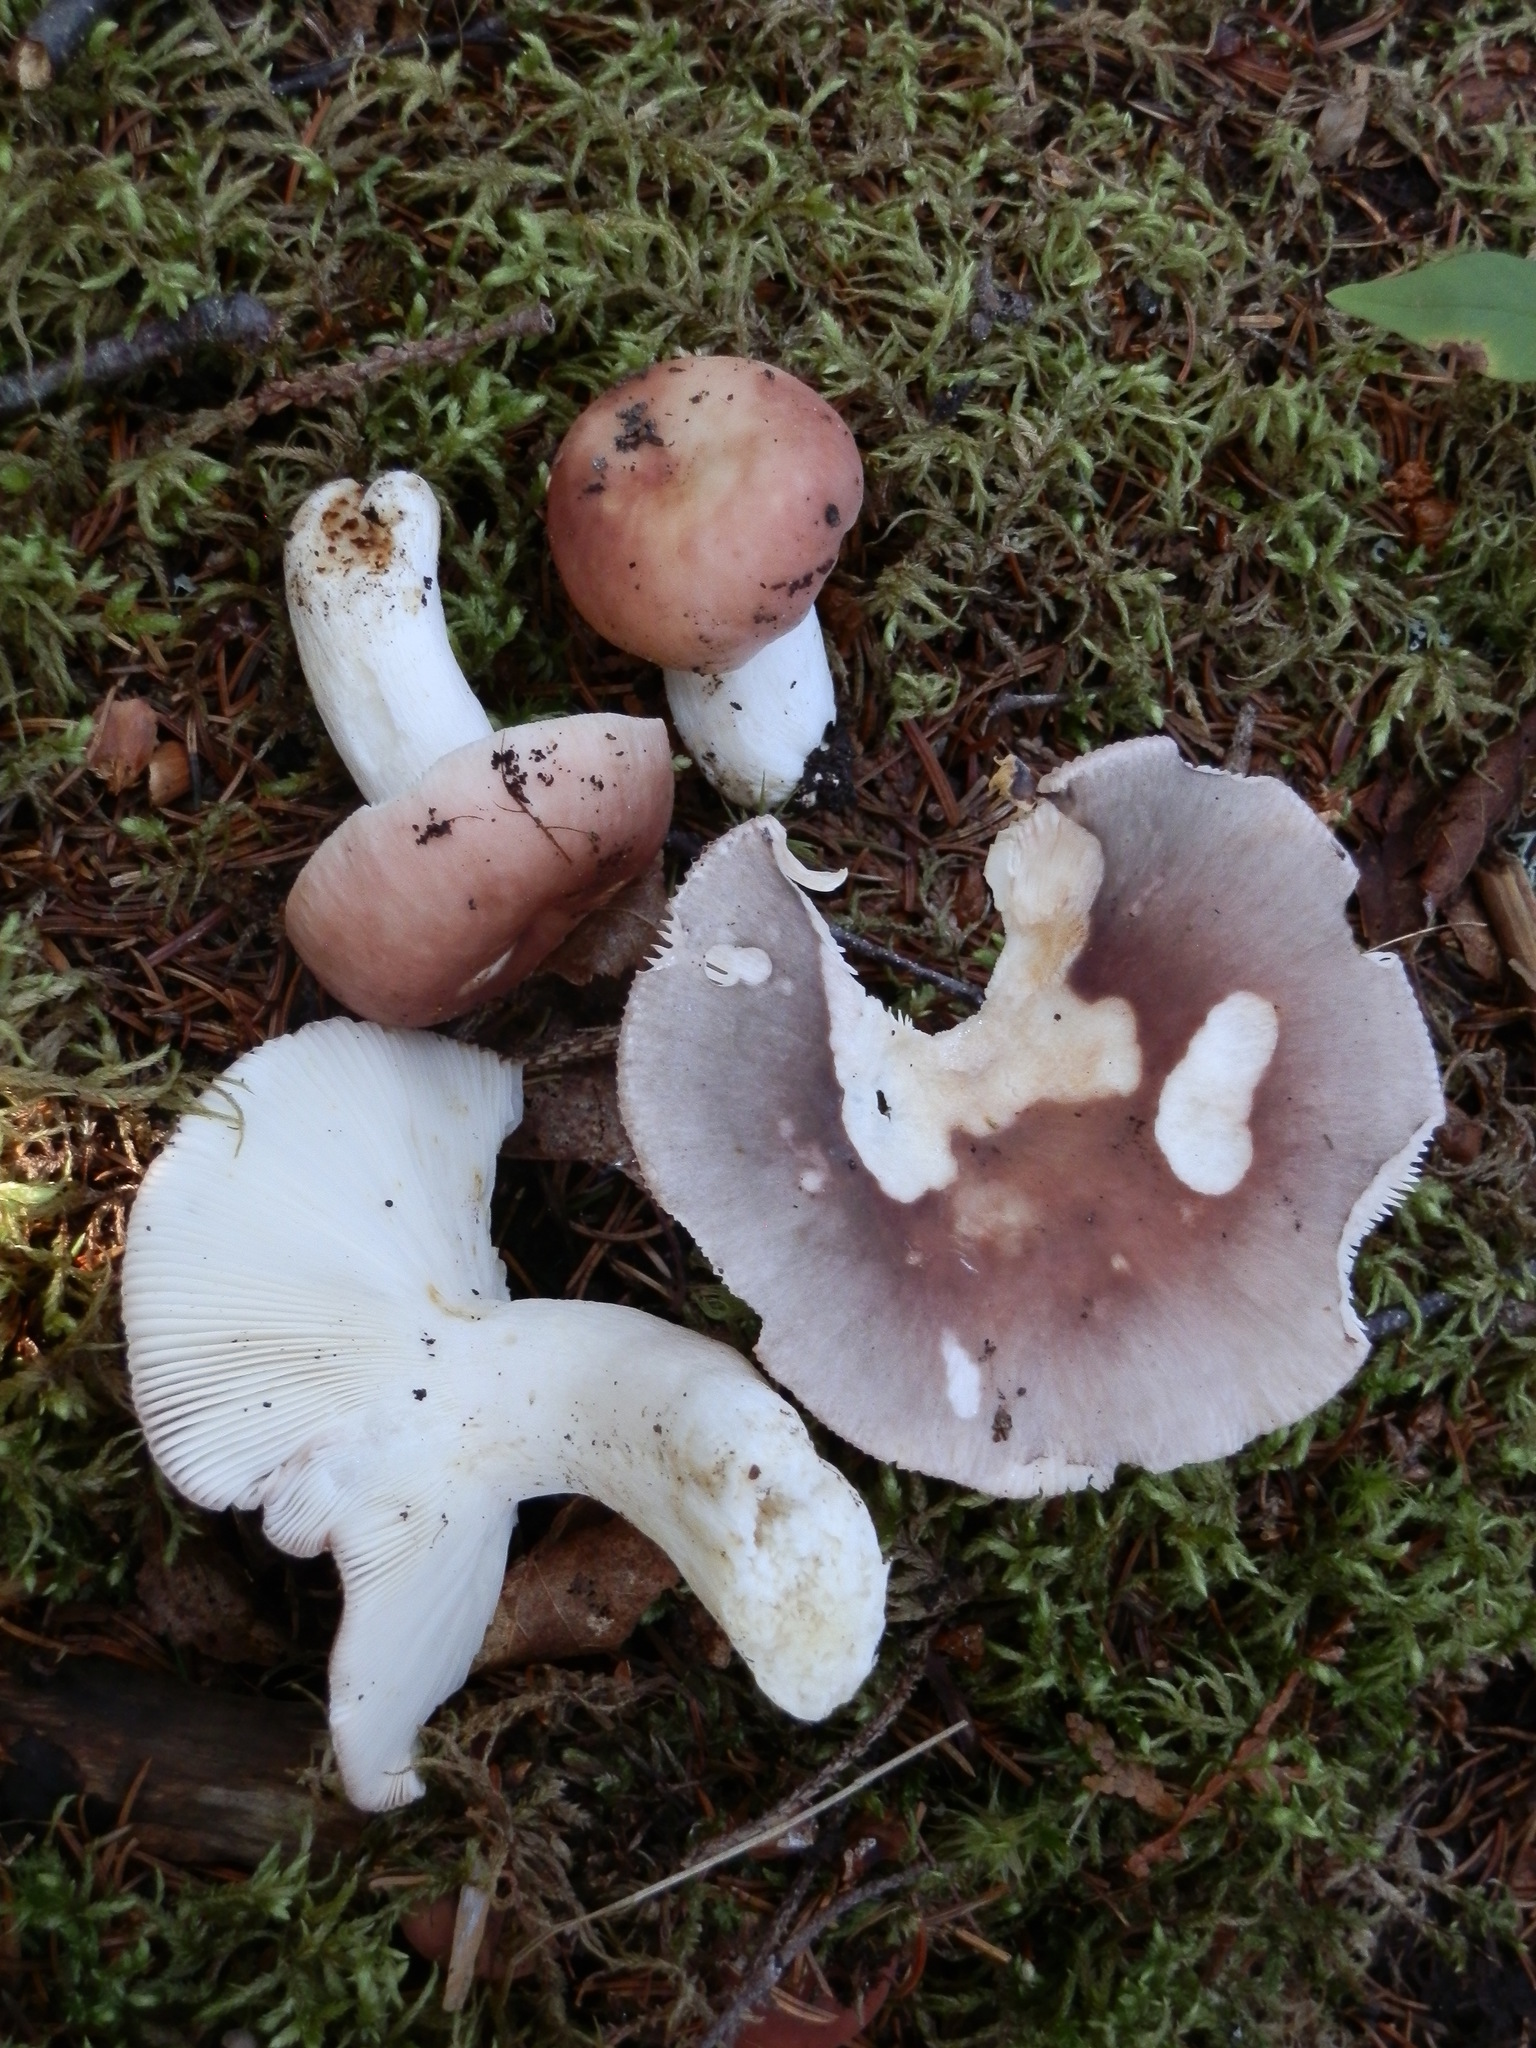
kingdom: Fungi
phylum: Basidiomycota
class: Agaricomycetes
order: Russulales
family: Russulaceae
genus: Russula
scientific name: Russula parazurea
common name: Powdery brittlegill
